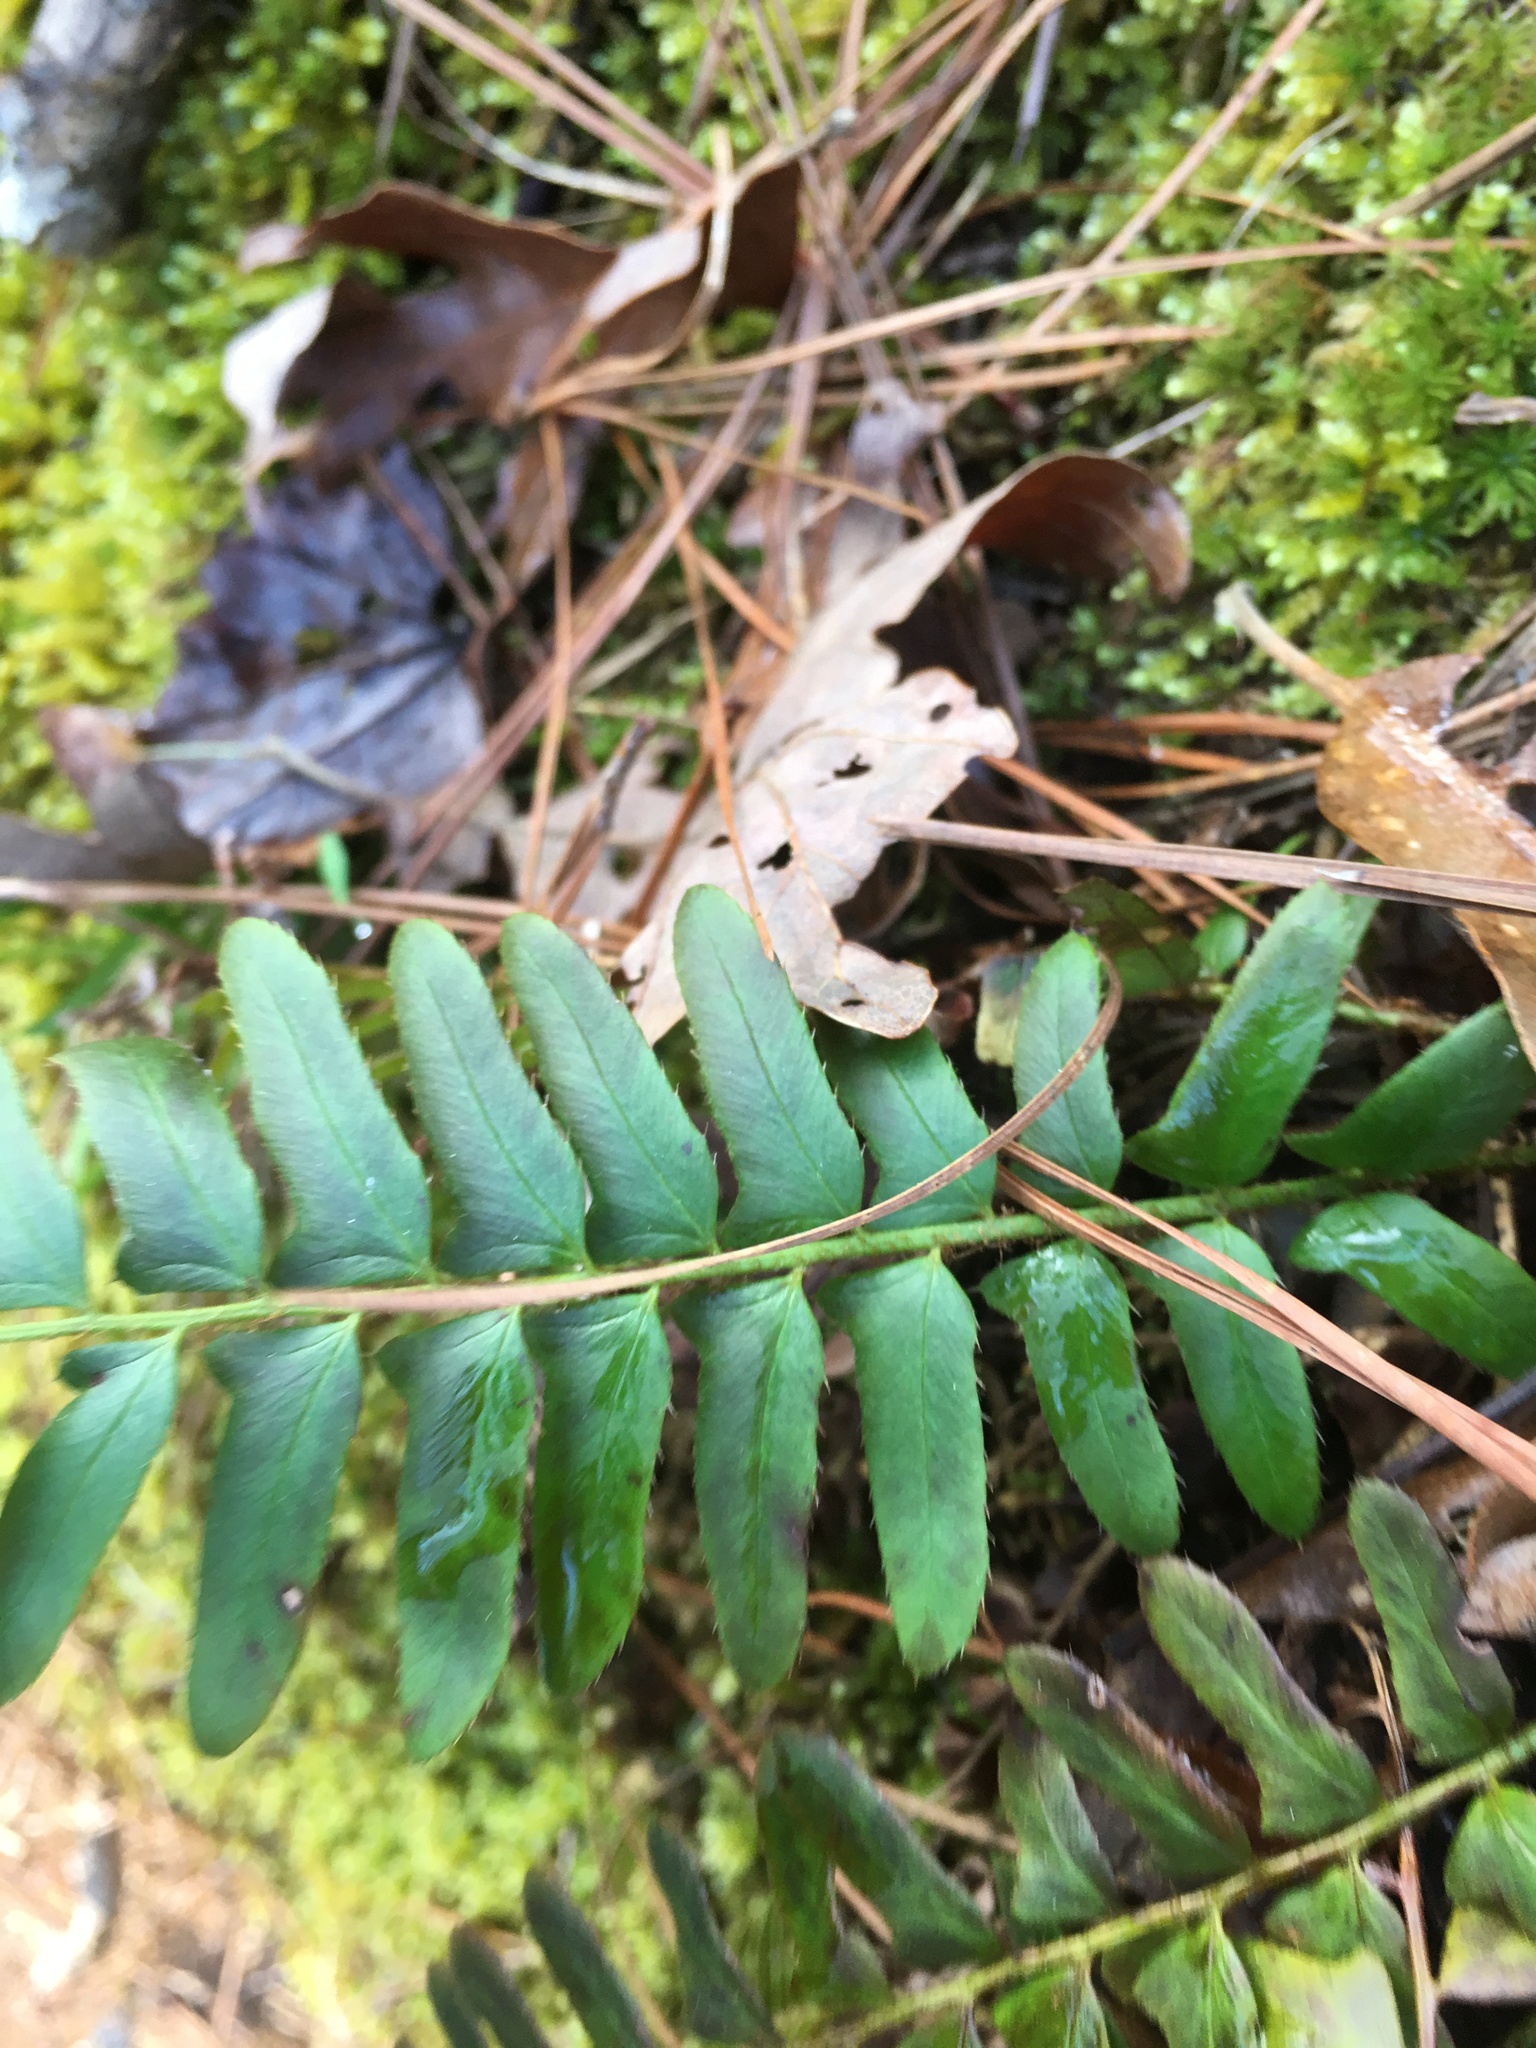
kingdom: Plantae
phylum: Tracheophyta
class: Polypodiopsida
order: Polypodiales
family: Dryopteridaceae
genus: Polystichum
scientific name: Polystichum acrostichoides
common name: Christmas fern
